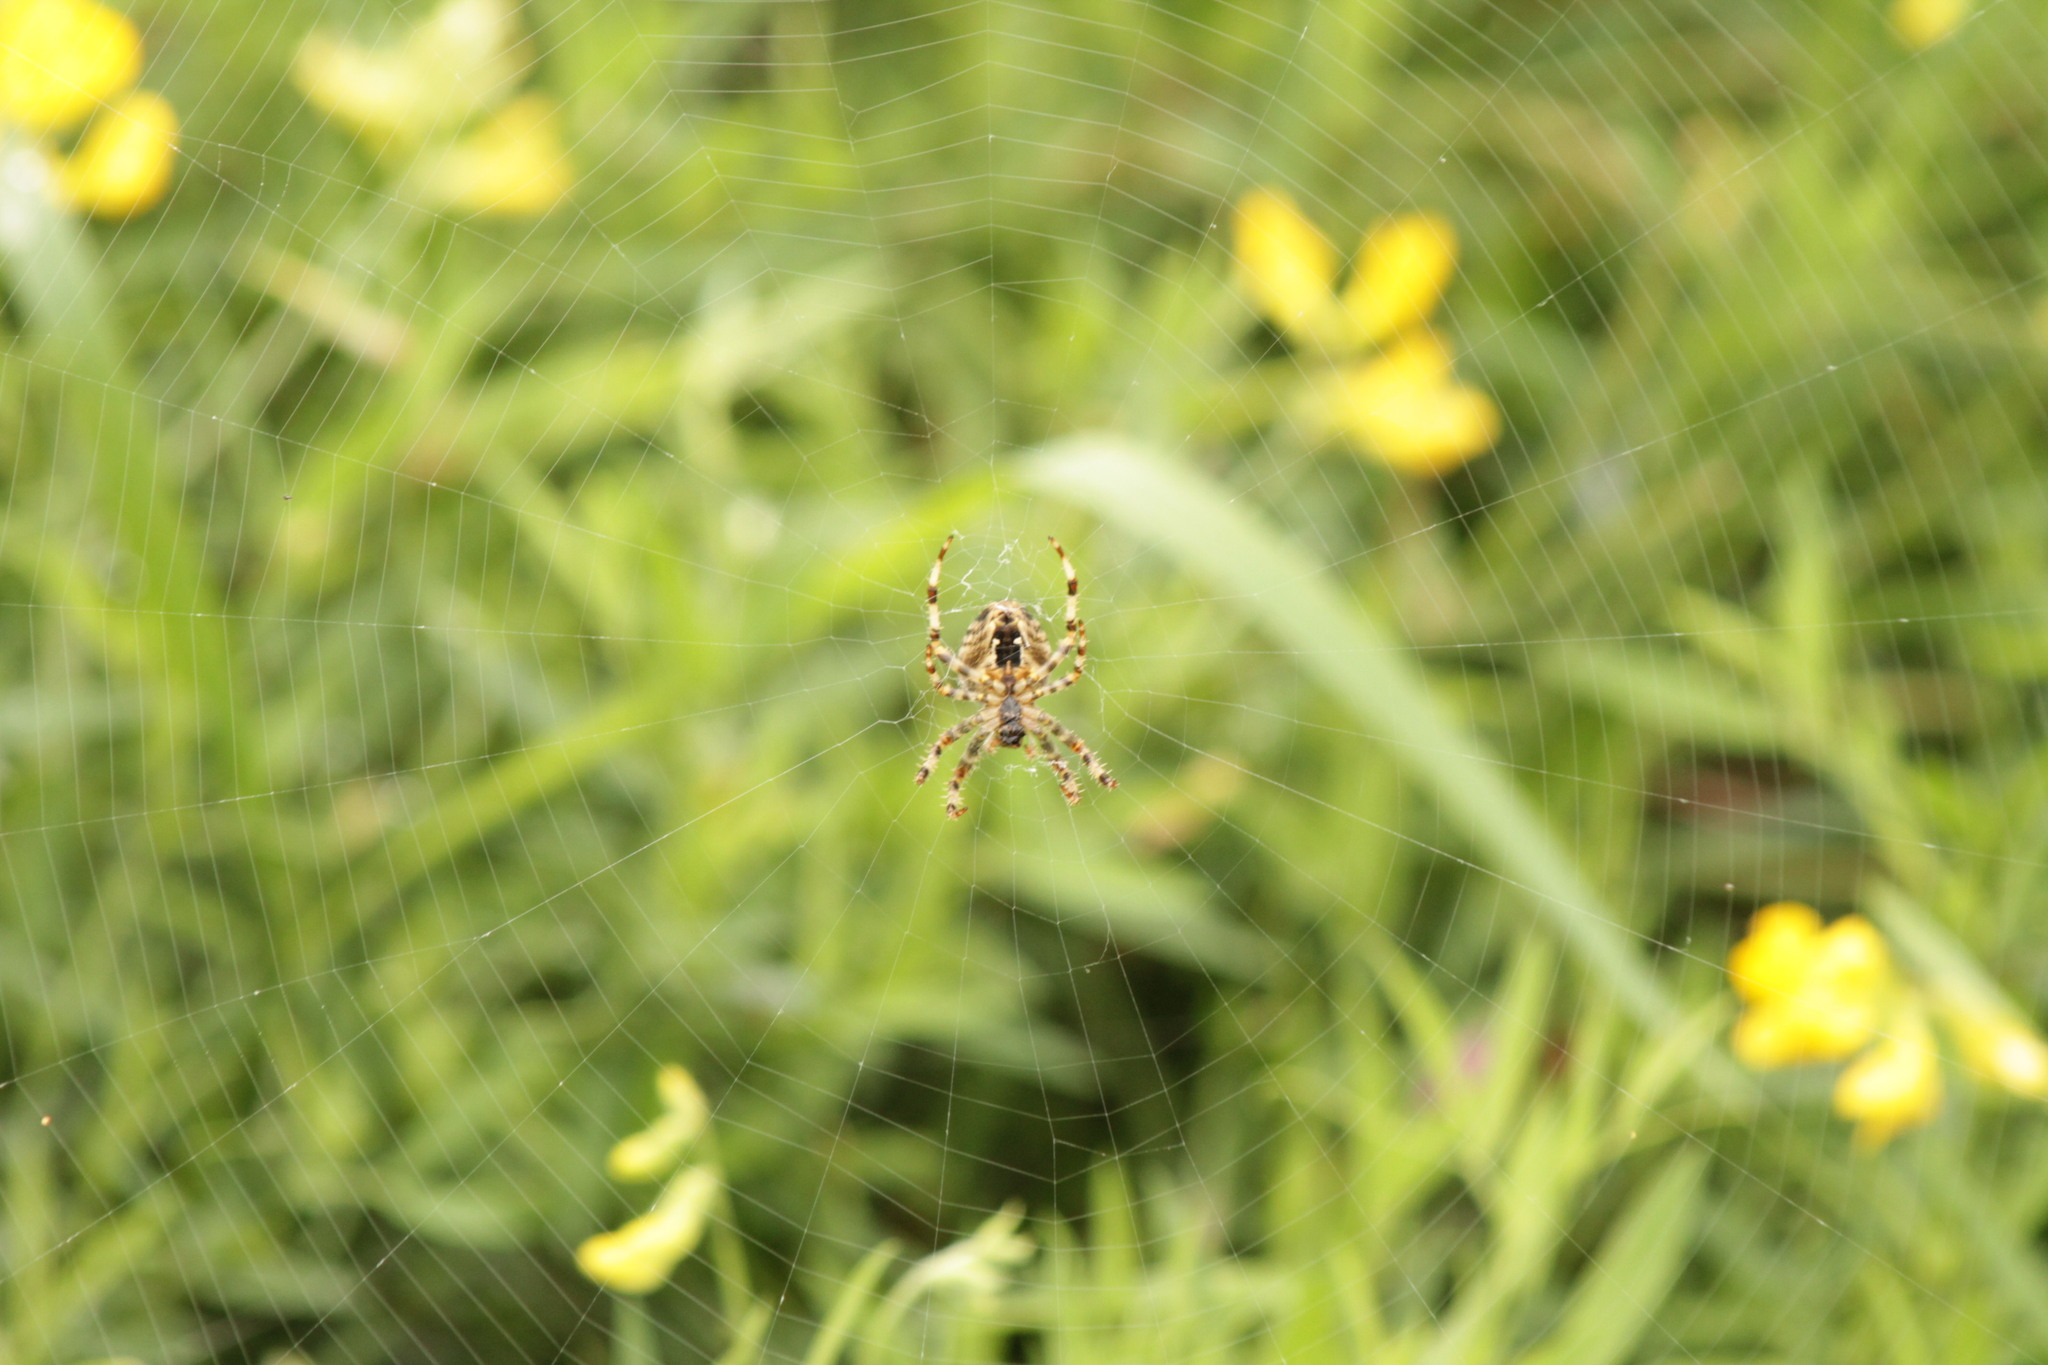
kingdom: Animalia
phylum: Arthropoda
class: Arachnida
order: Araneae
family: Araneidae
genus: Araneus
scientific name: Araneus diadematus
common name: Cross orbweaver
